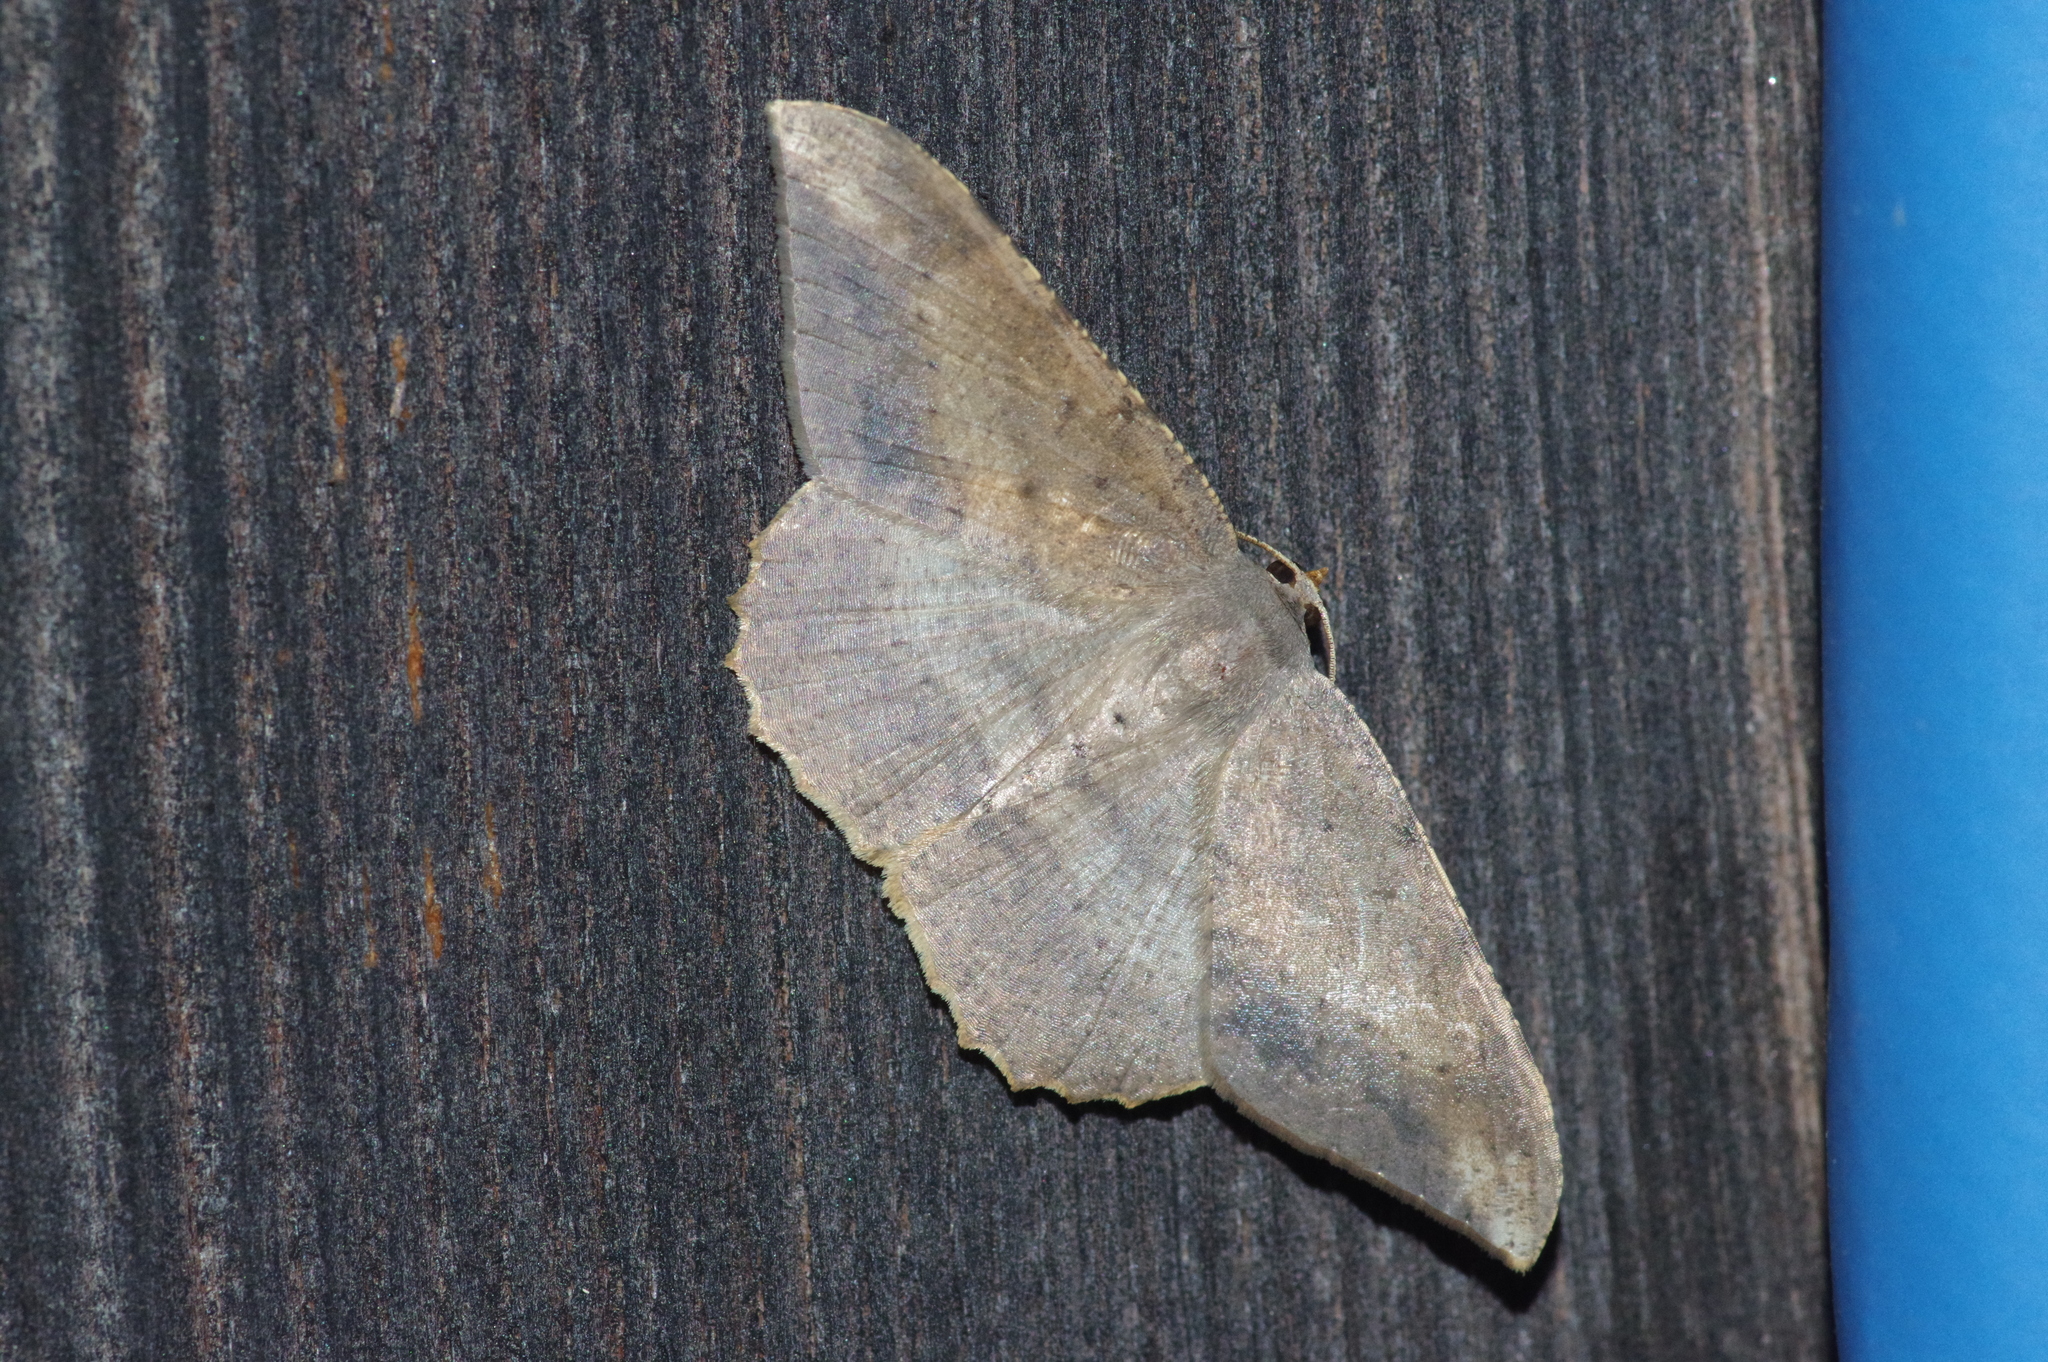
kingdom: Animalia
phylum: Arthropoda
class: Insecta
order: Lepidoptera
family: Geometridae
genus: Luxiaria
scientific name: Luxiaria amasa
